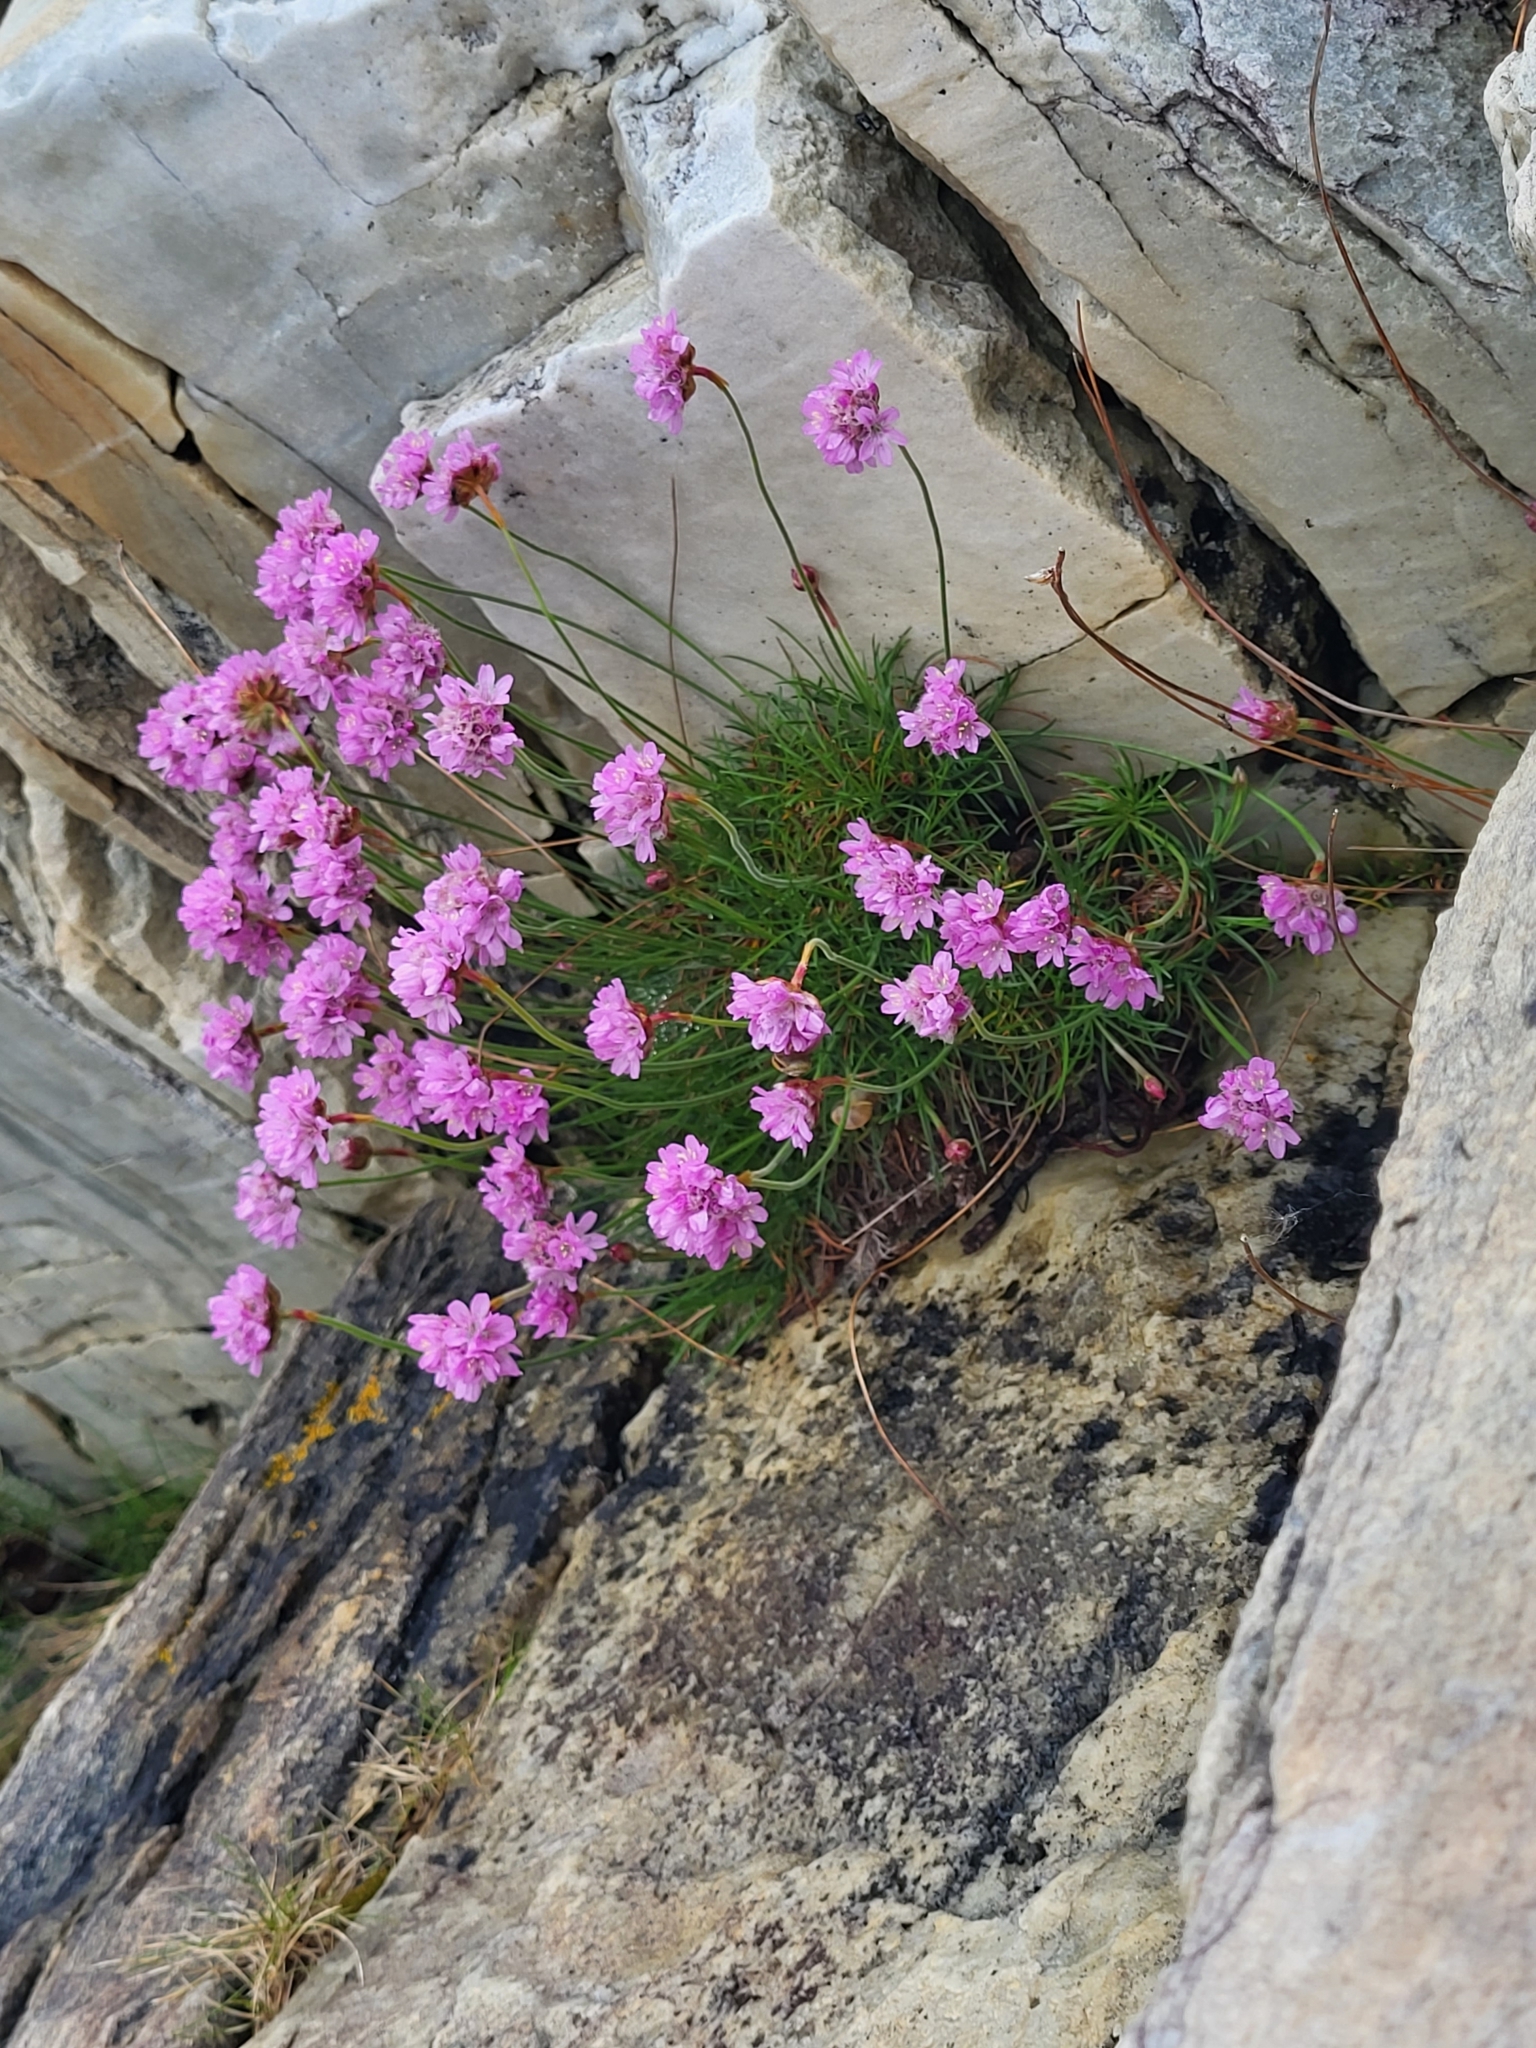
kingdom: Plantae
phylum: Tracheophyta
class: Magnoliopsida
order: Caryophyllales
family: Plumbaginaceae
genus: Armeria
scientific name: Armeria maritima
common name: Thrift
